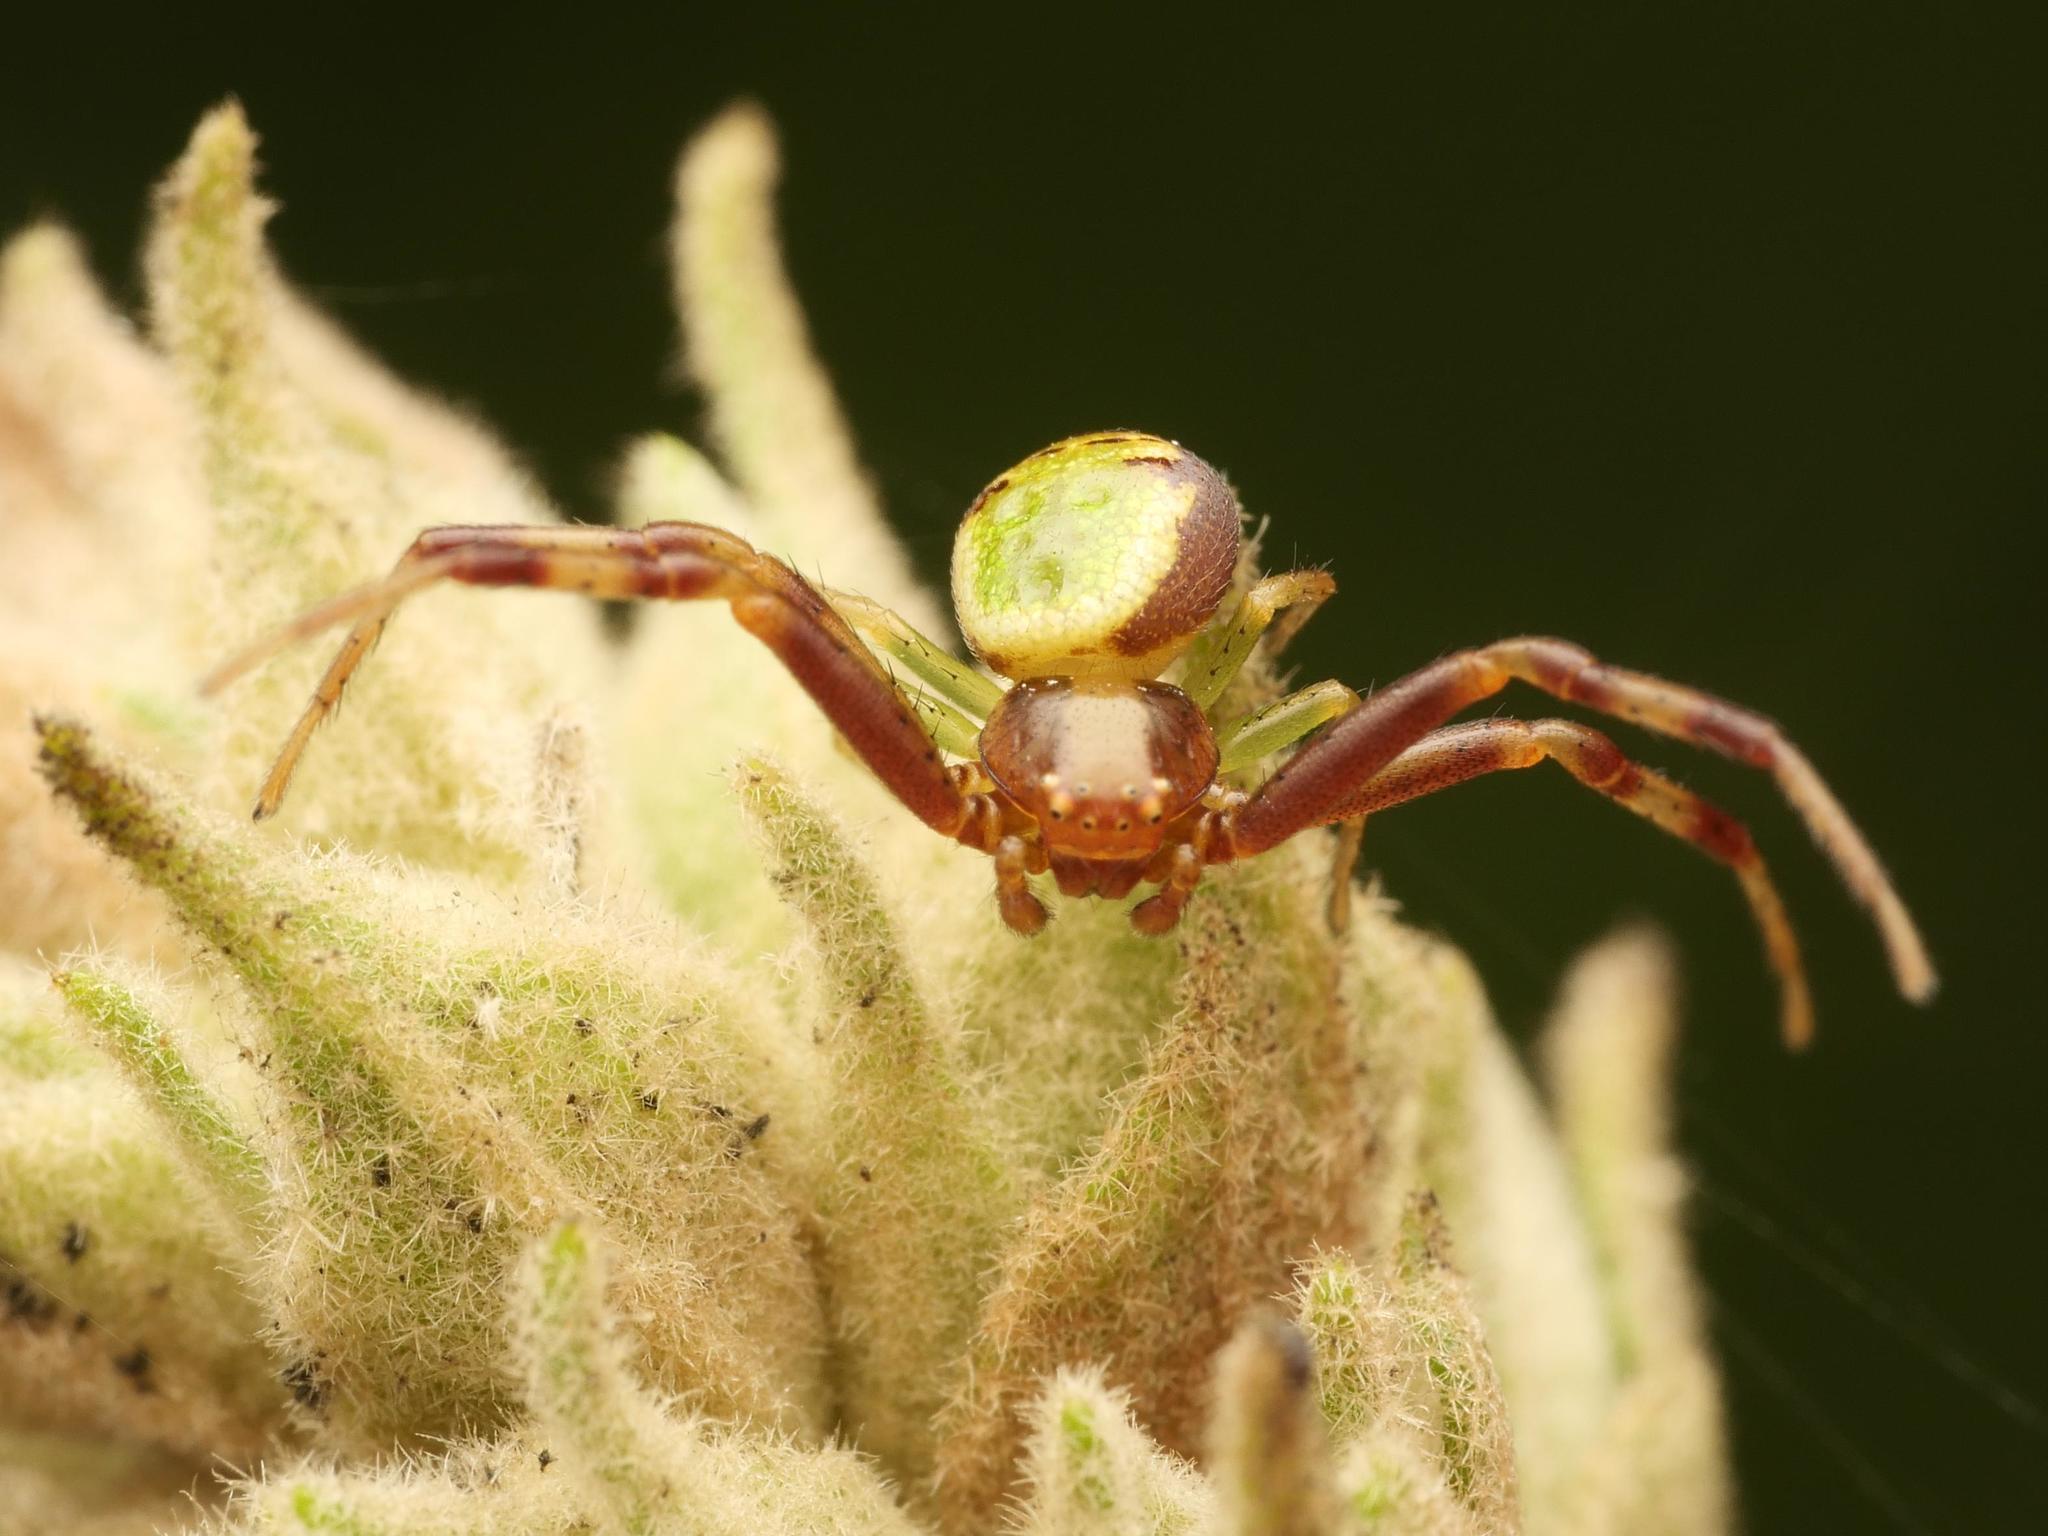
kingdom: Animalia
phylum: Arthropoda
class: Arachnida
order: Araneae
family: Thomisidae
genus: Ebrechtella
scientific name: Ebrechtella tricuspidata
